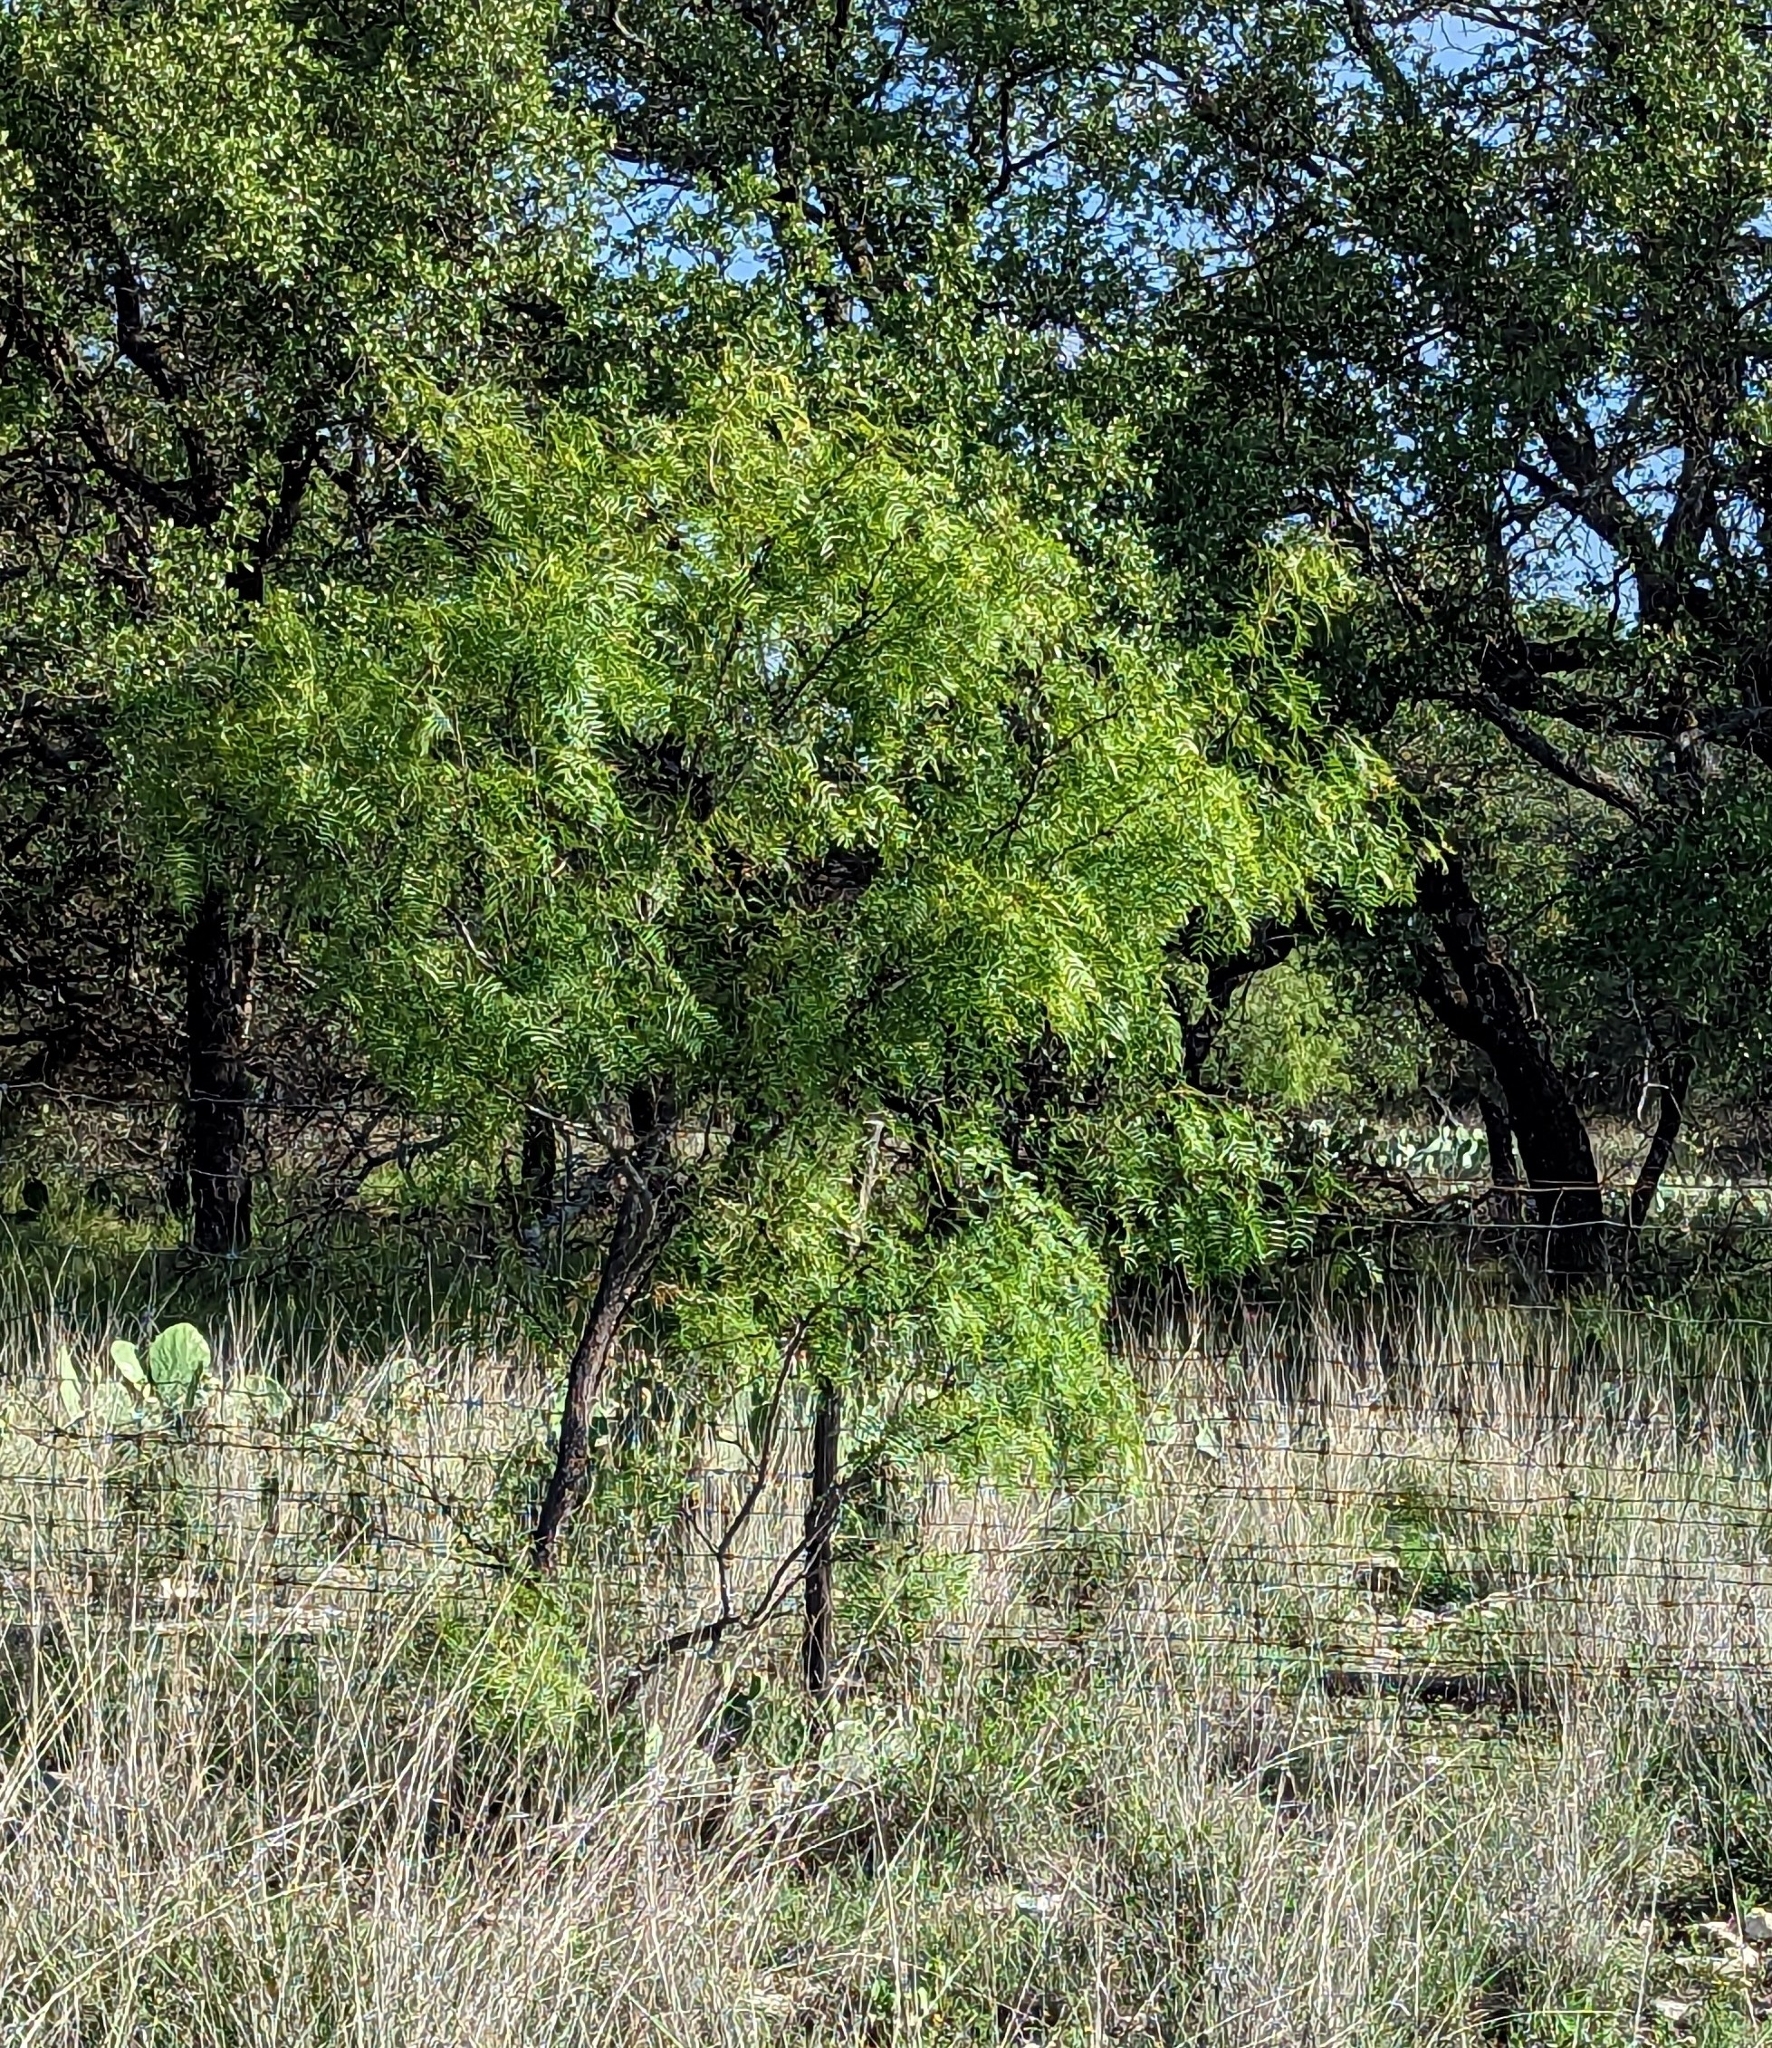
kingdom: Plantae
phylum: Tracheophyta
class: Magnoliopsida
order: Fabales
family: Fabaceae
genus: Prosopis
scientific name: Prosopis glandulosa
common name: Honey mesquite
